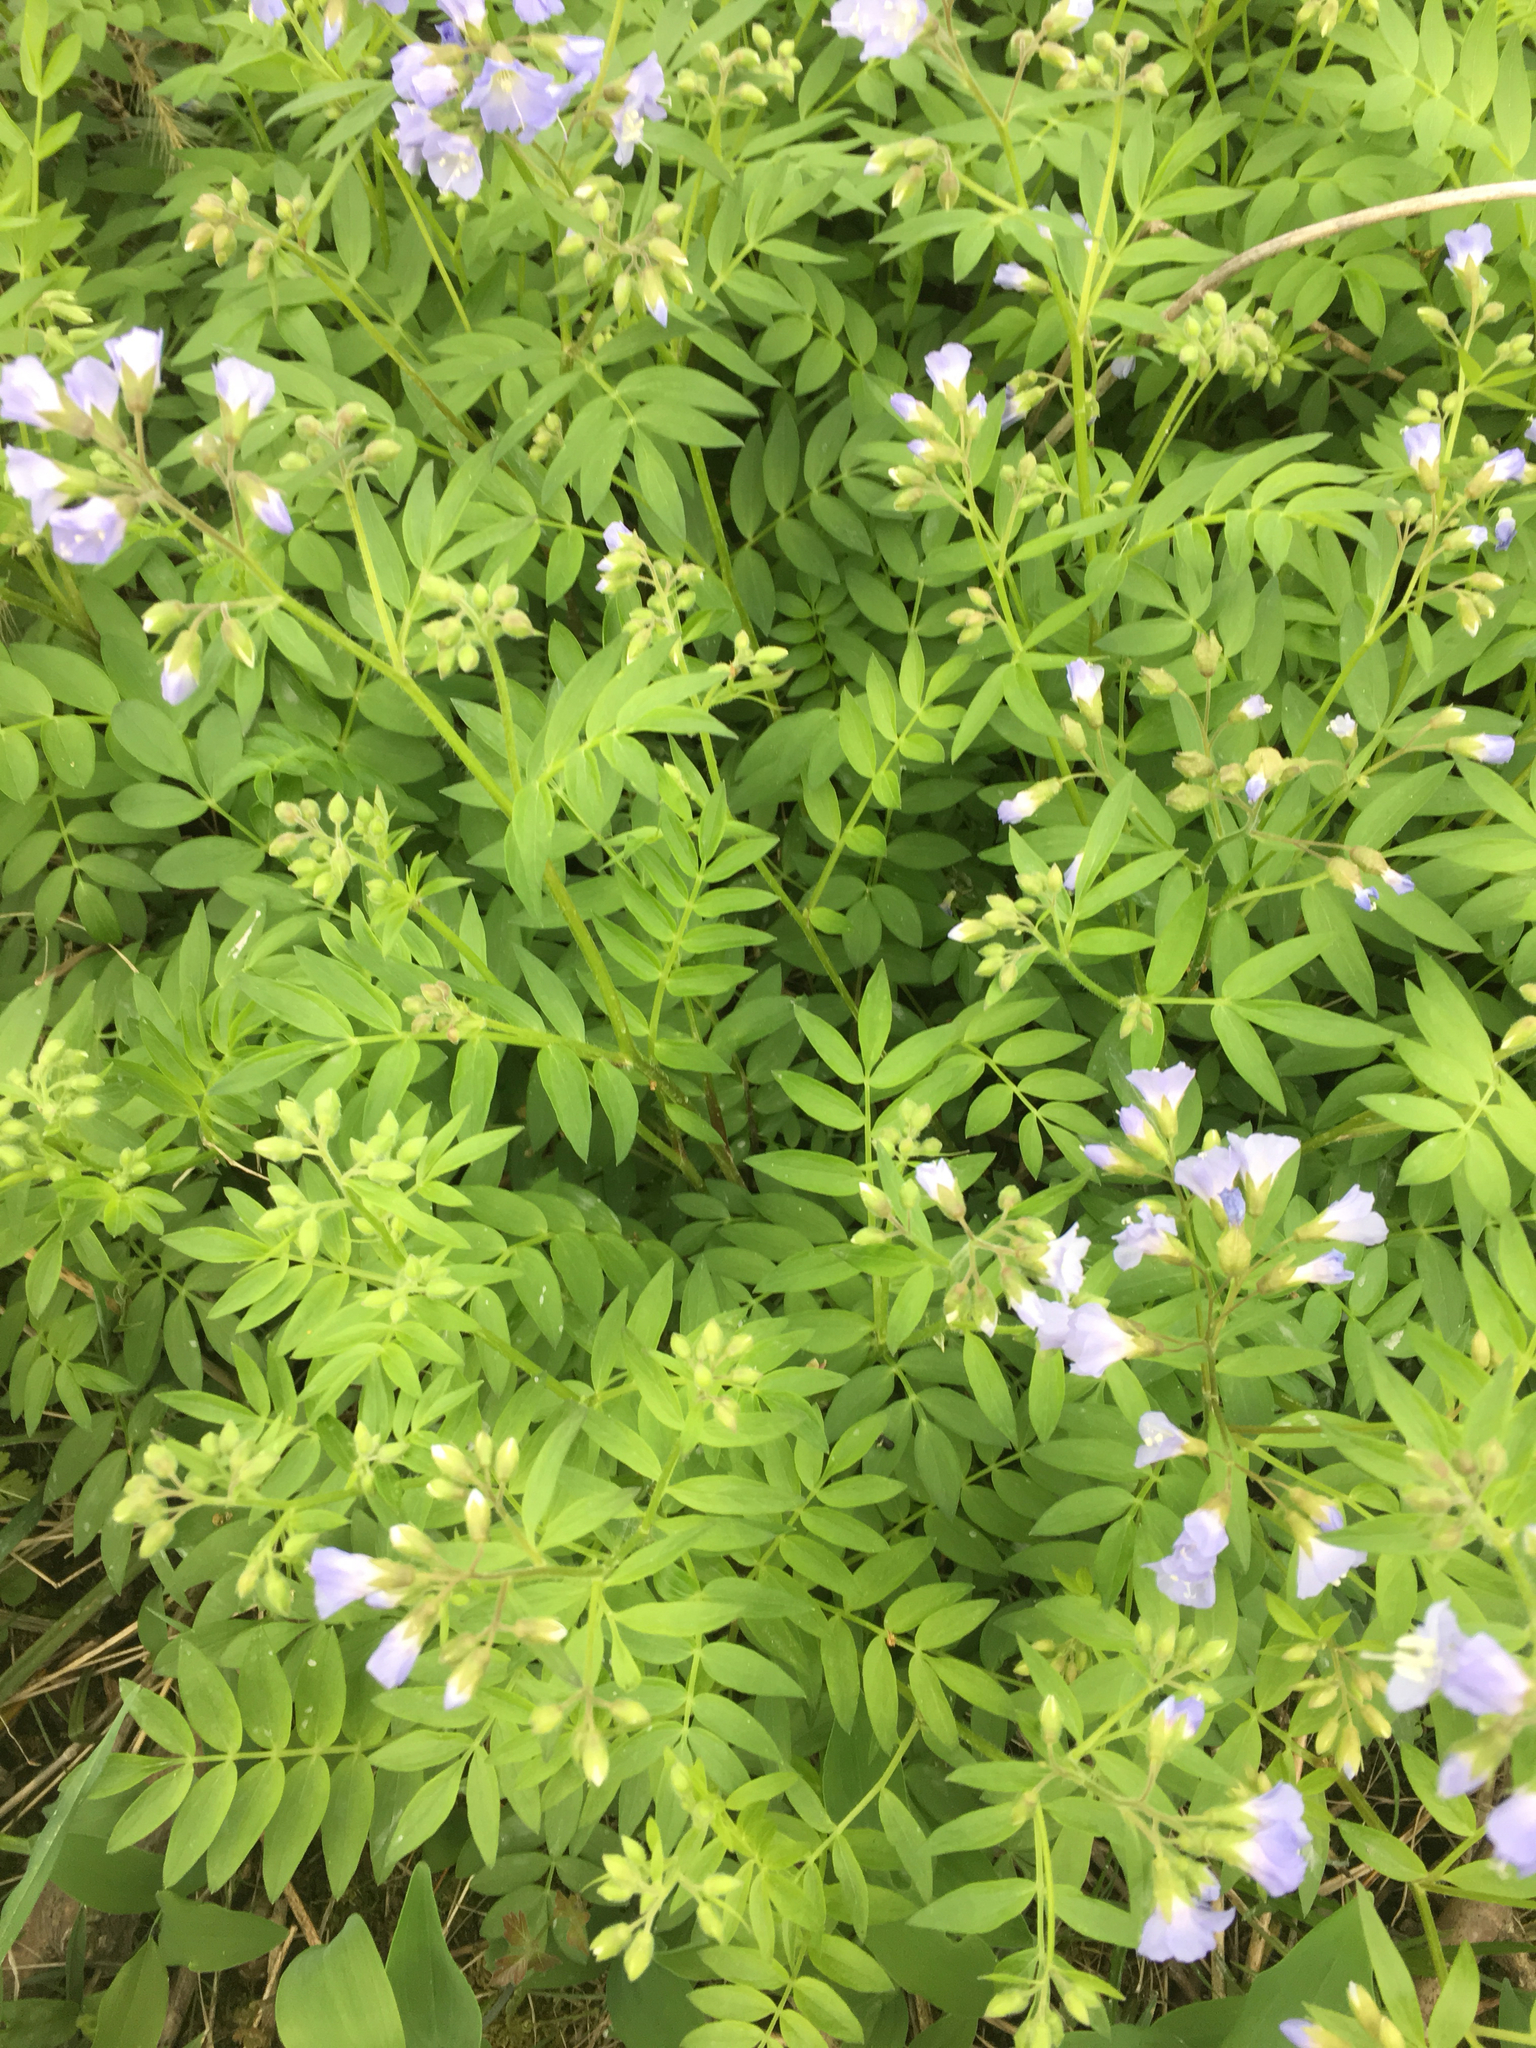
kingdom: Plantae
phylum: Tracheophyta
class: Magnoliopsida
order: Ericales
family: Polemoniaceae
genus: Polemonium
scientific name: Polemonium reptans
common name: Creeping jacob's-ladder
